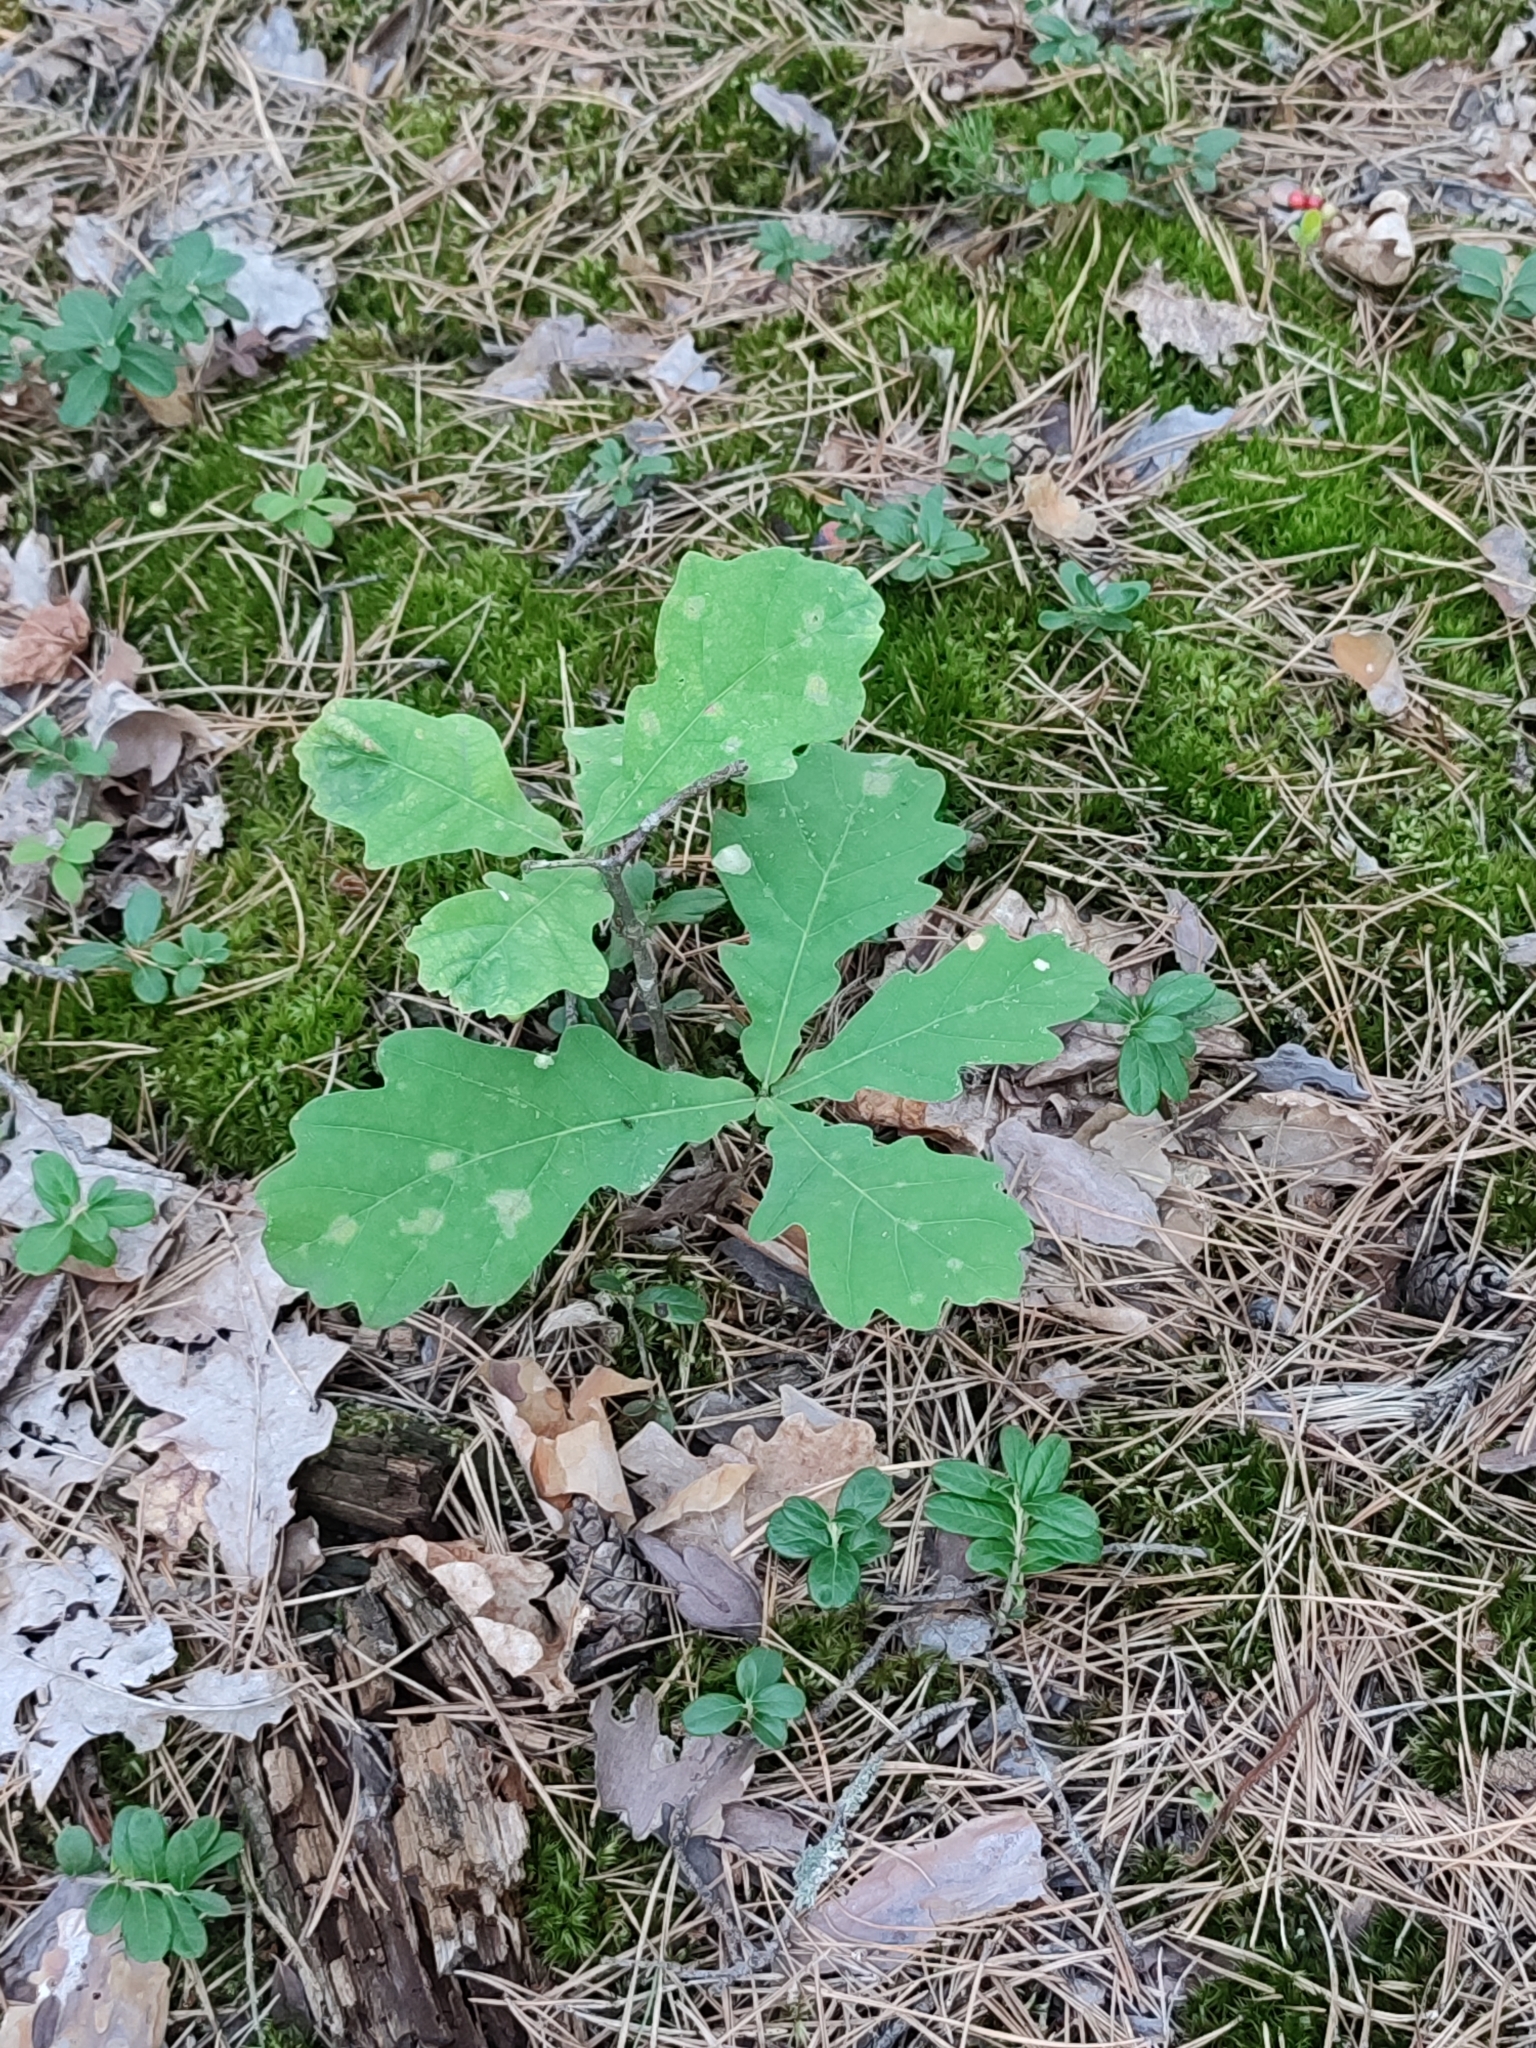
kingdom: Plantae
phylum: Tracheophyta
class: Magnoliopsida
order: Fagales
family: Fagaceae
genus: Quercus
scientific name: Quercus robur
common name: Pedunculate oak
